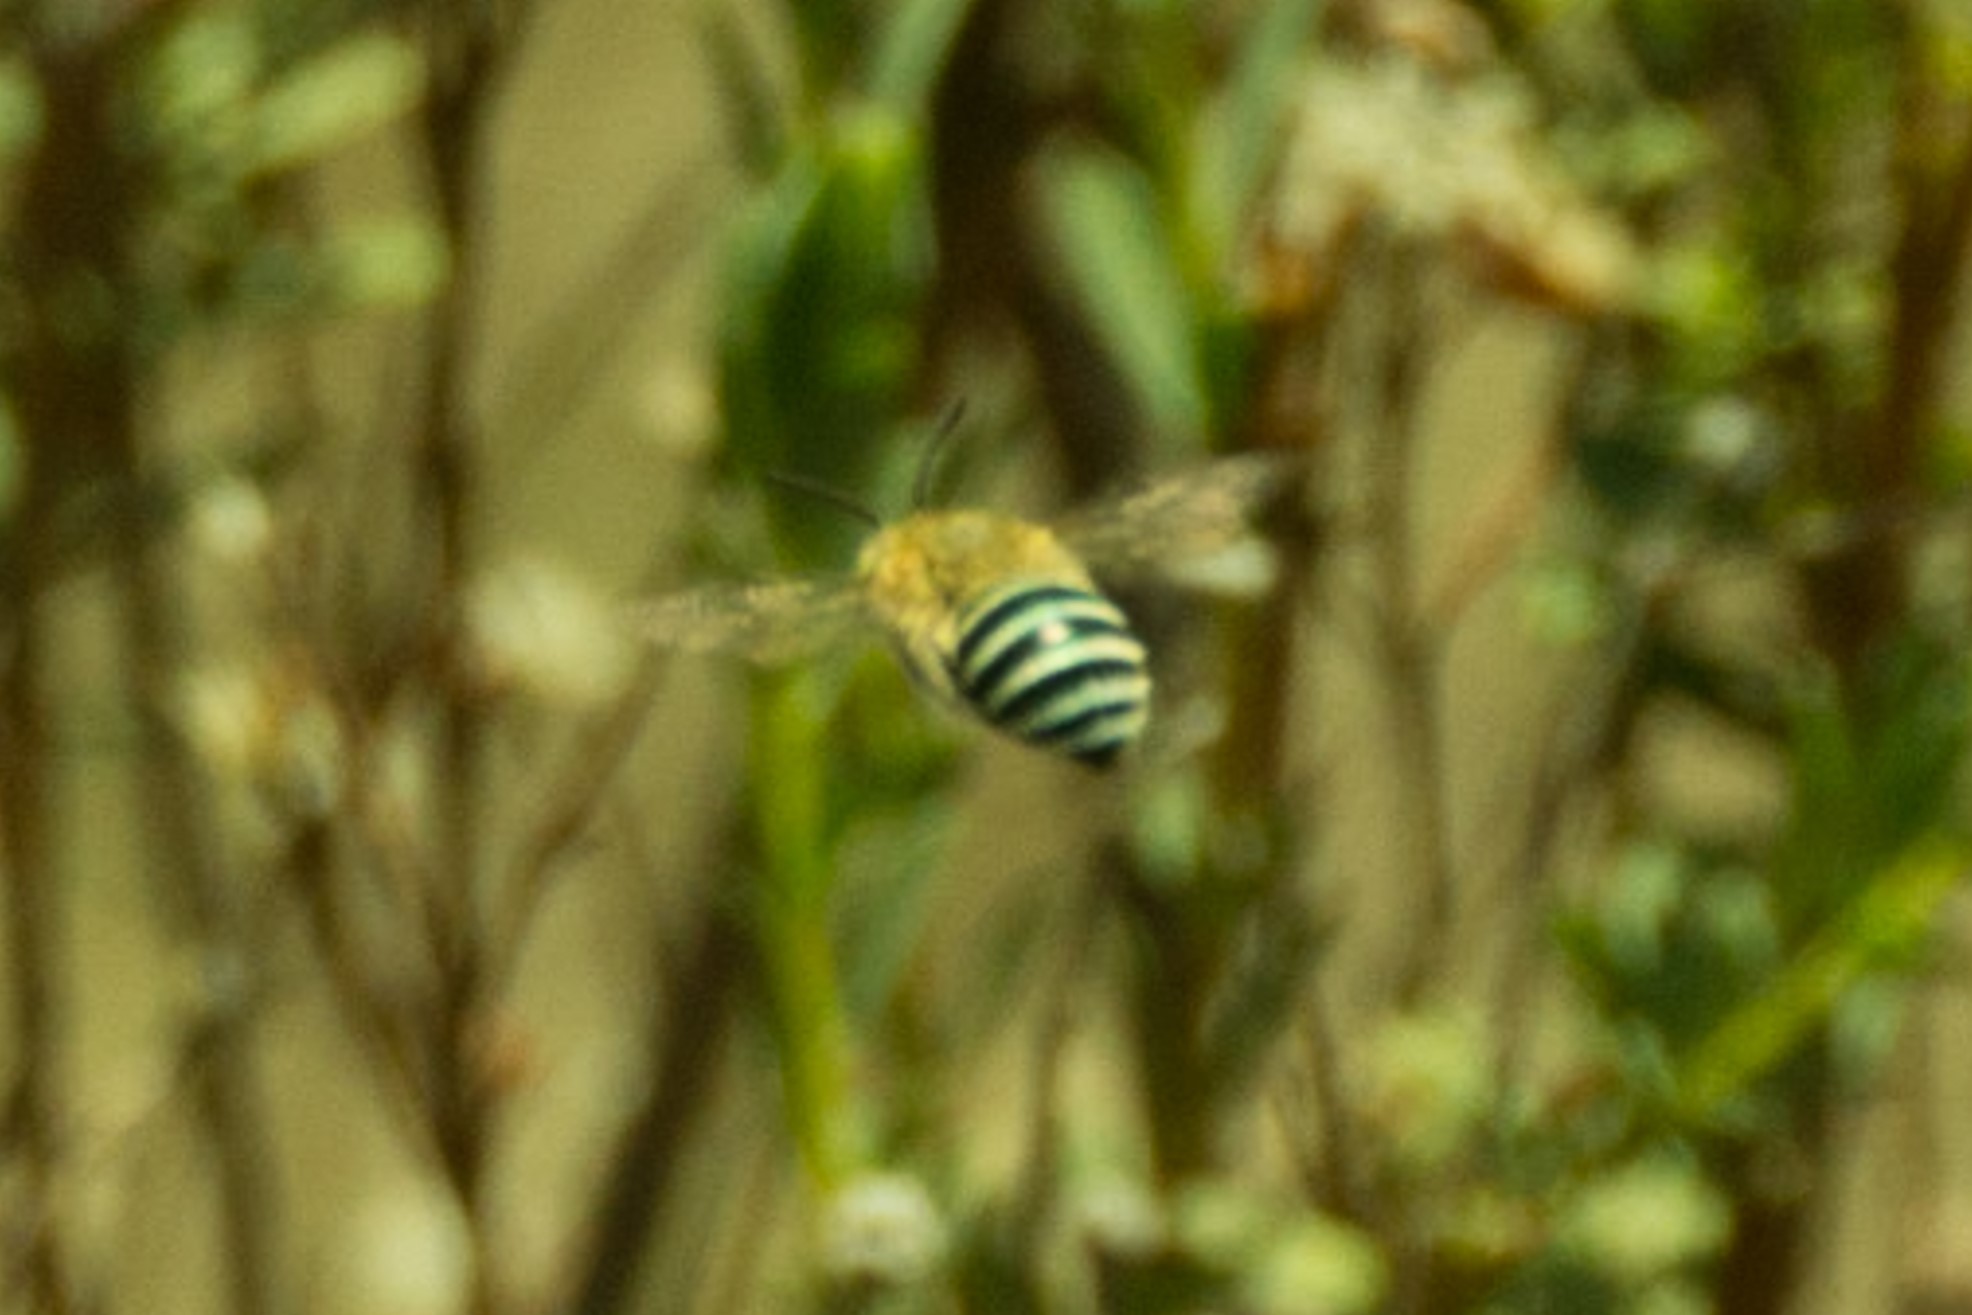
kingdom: Animalia
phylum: Arthropoda
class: Insecta
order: Hymenoptera
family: Apidae
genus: Amegilla
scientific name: Amegilla
